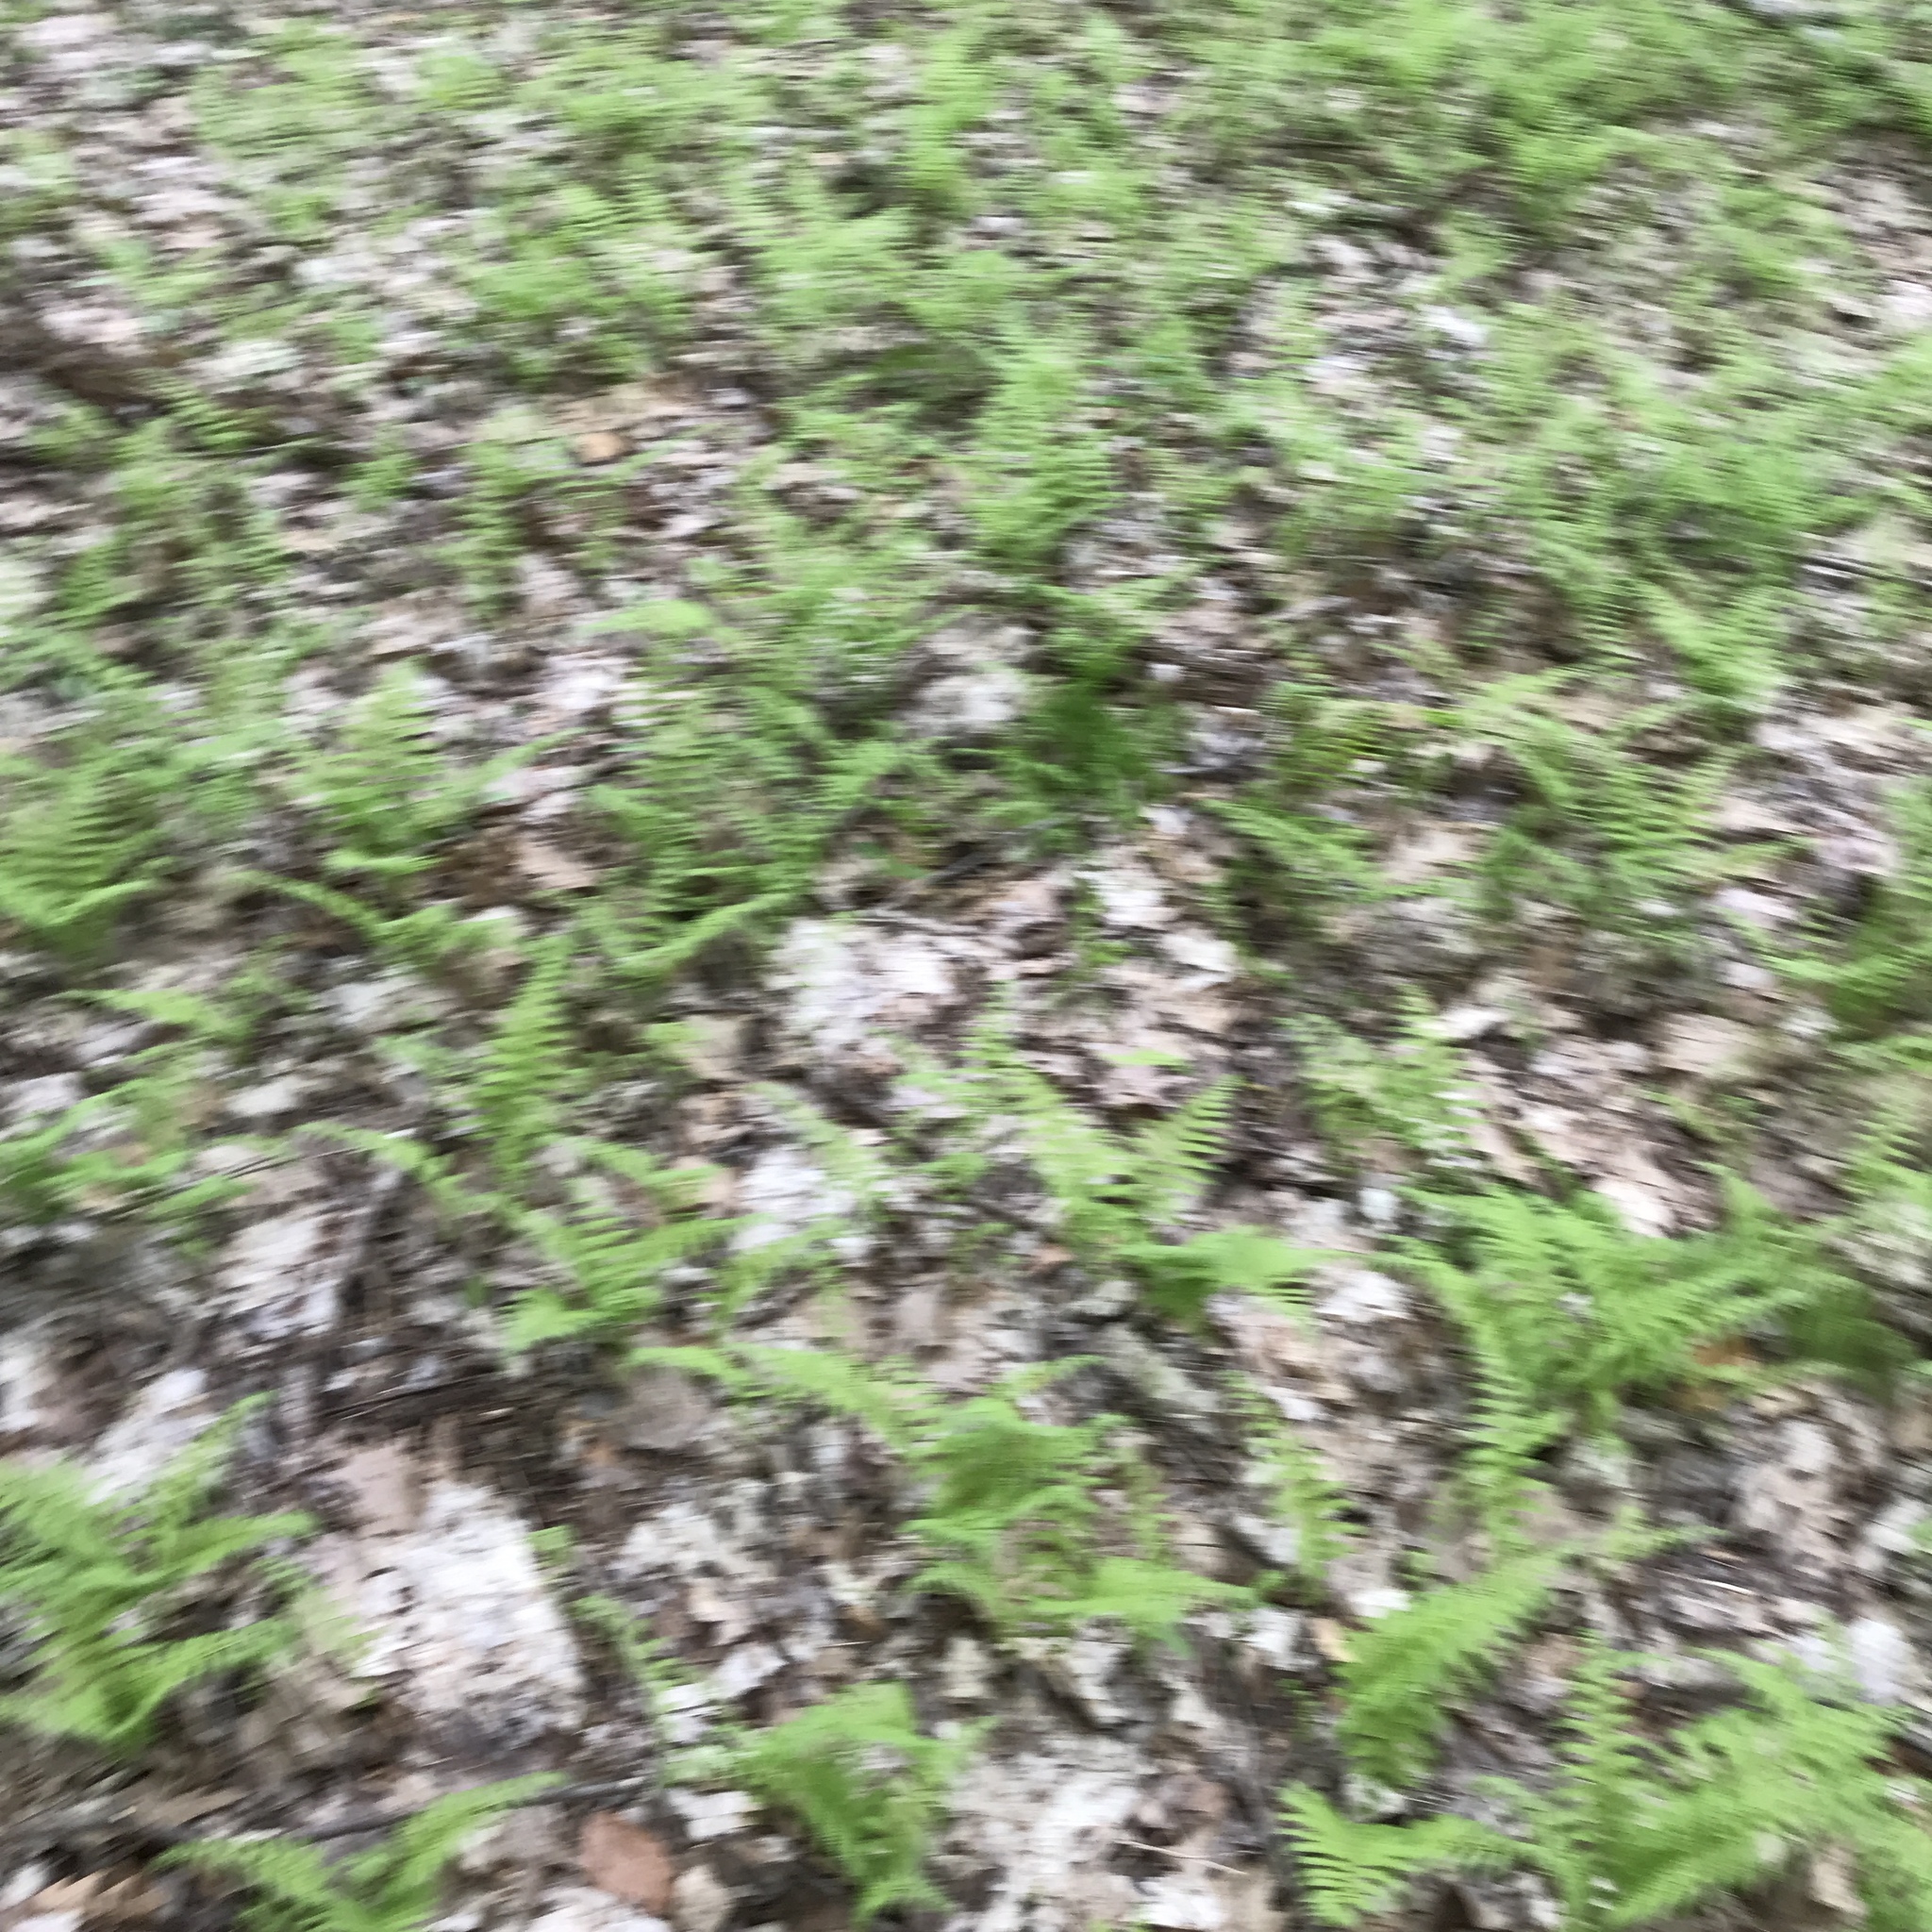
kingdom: Plantae
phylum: Tracheophyta
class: Polypodiopsida
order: Polypodiales
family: Thelypteridaceae
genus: Amauropelta
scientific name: Amauropelta noveboracensis
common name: New york fern
